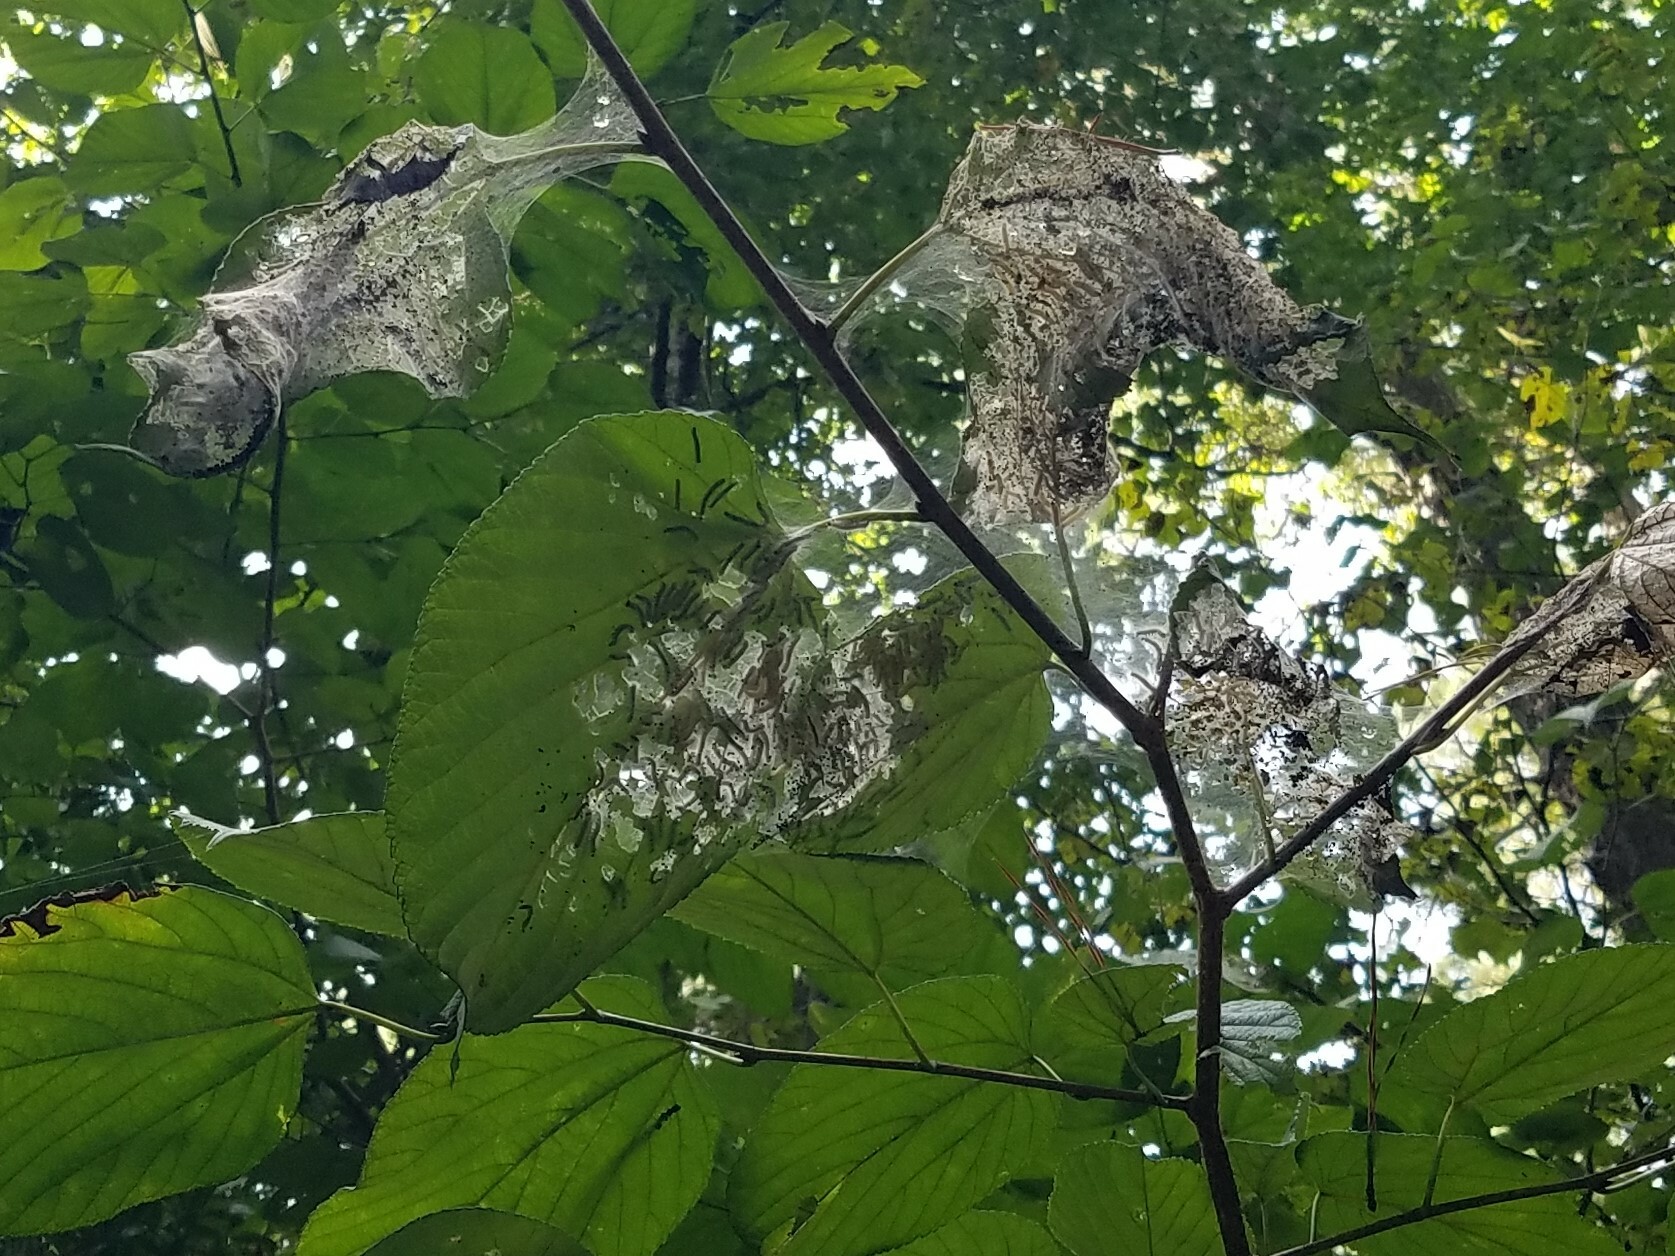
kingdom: Animalia
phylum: Arthropoda
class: Insecta
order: Lepidoptera
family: Erebidae
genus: Hyphantria
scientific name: Hyphantria cunea
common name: American white moth
